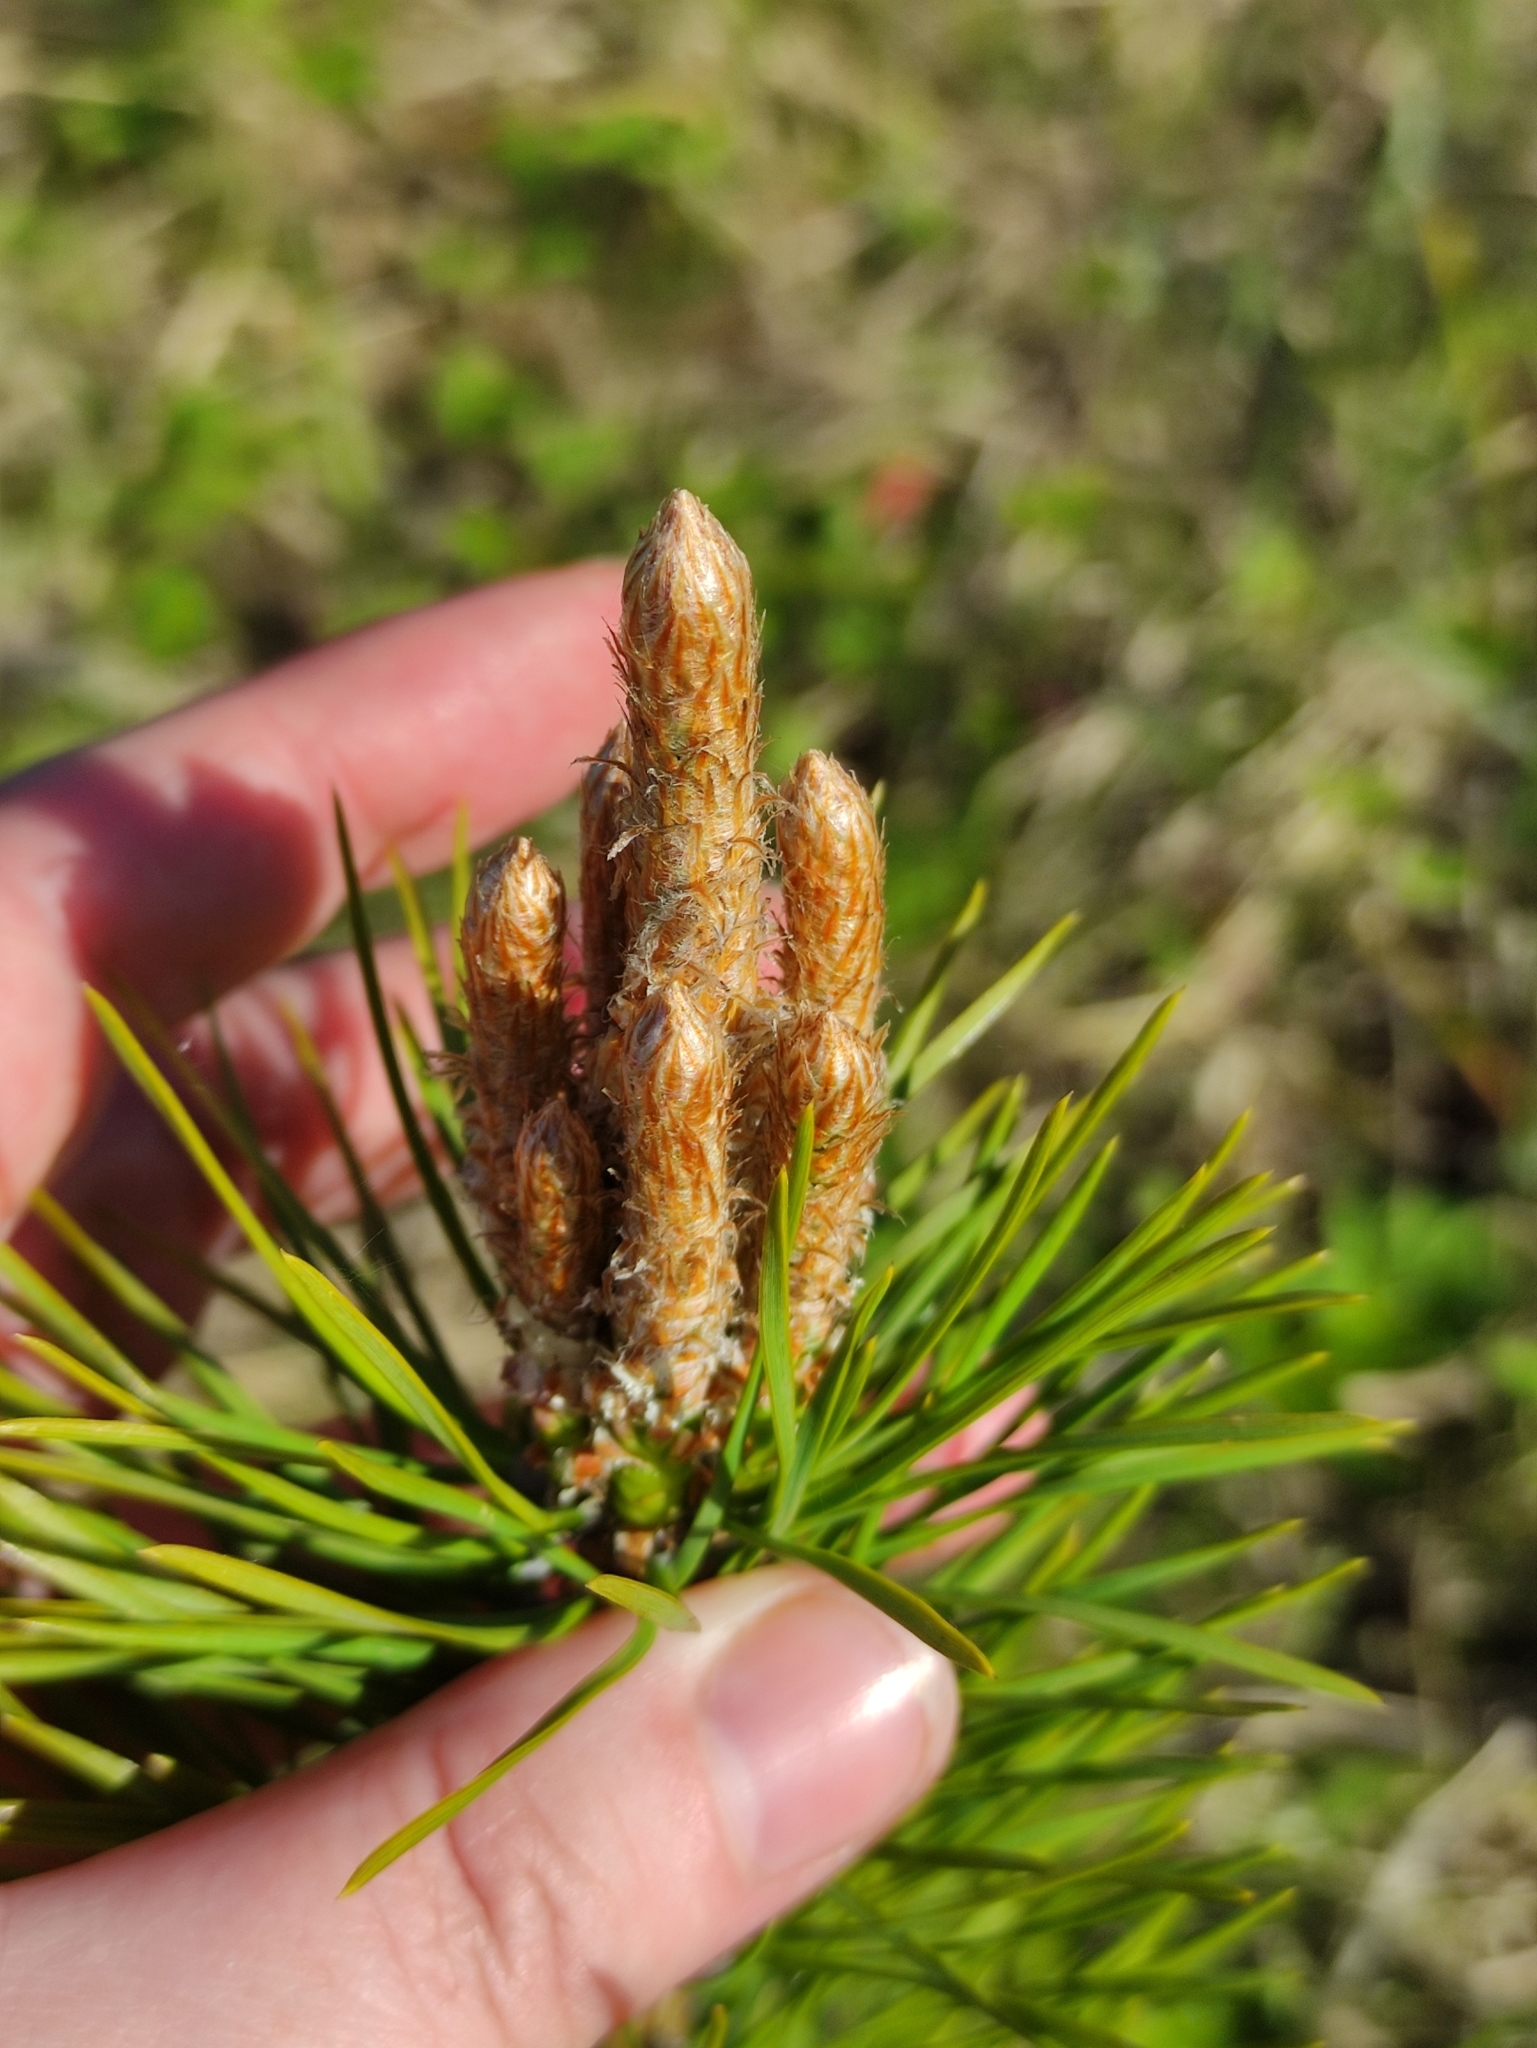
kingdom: Plantae
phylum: Tracheophyta
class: Pinopsida
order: Pinales
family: Pinaceae
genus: Pinus
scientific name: Pinus sylvestris
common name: Scots pine
